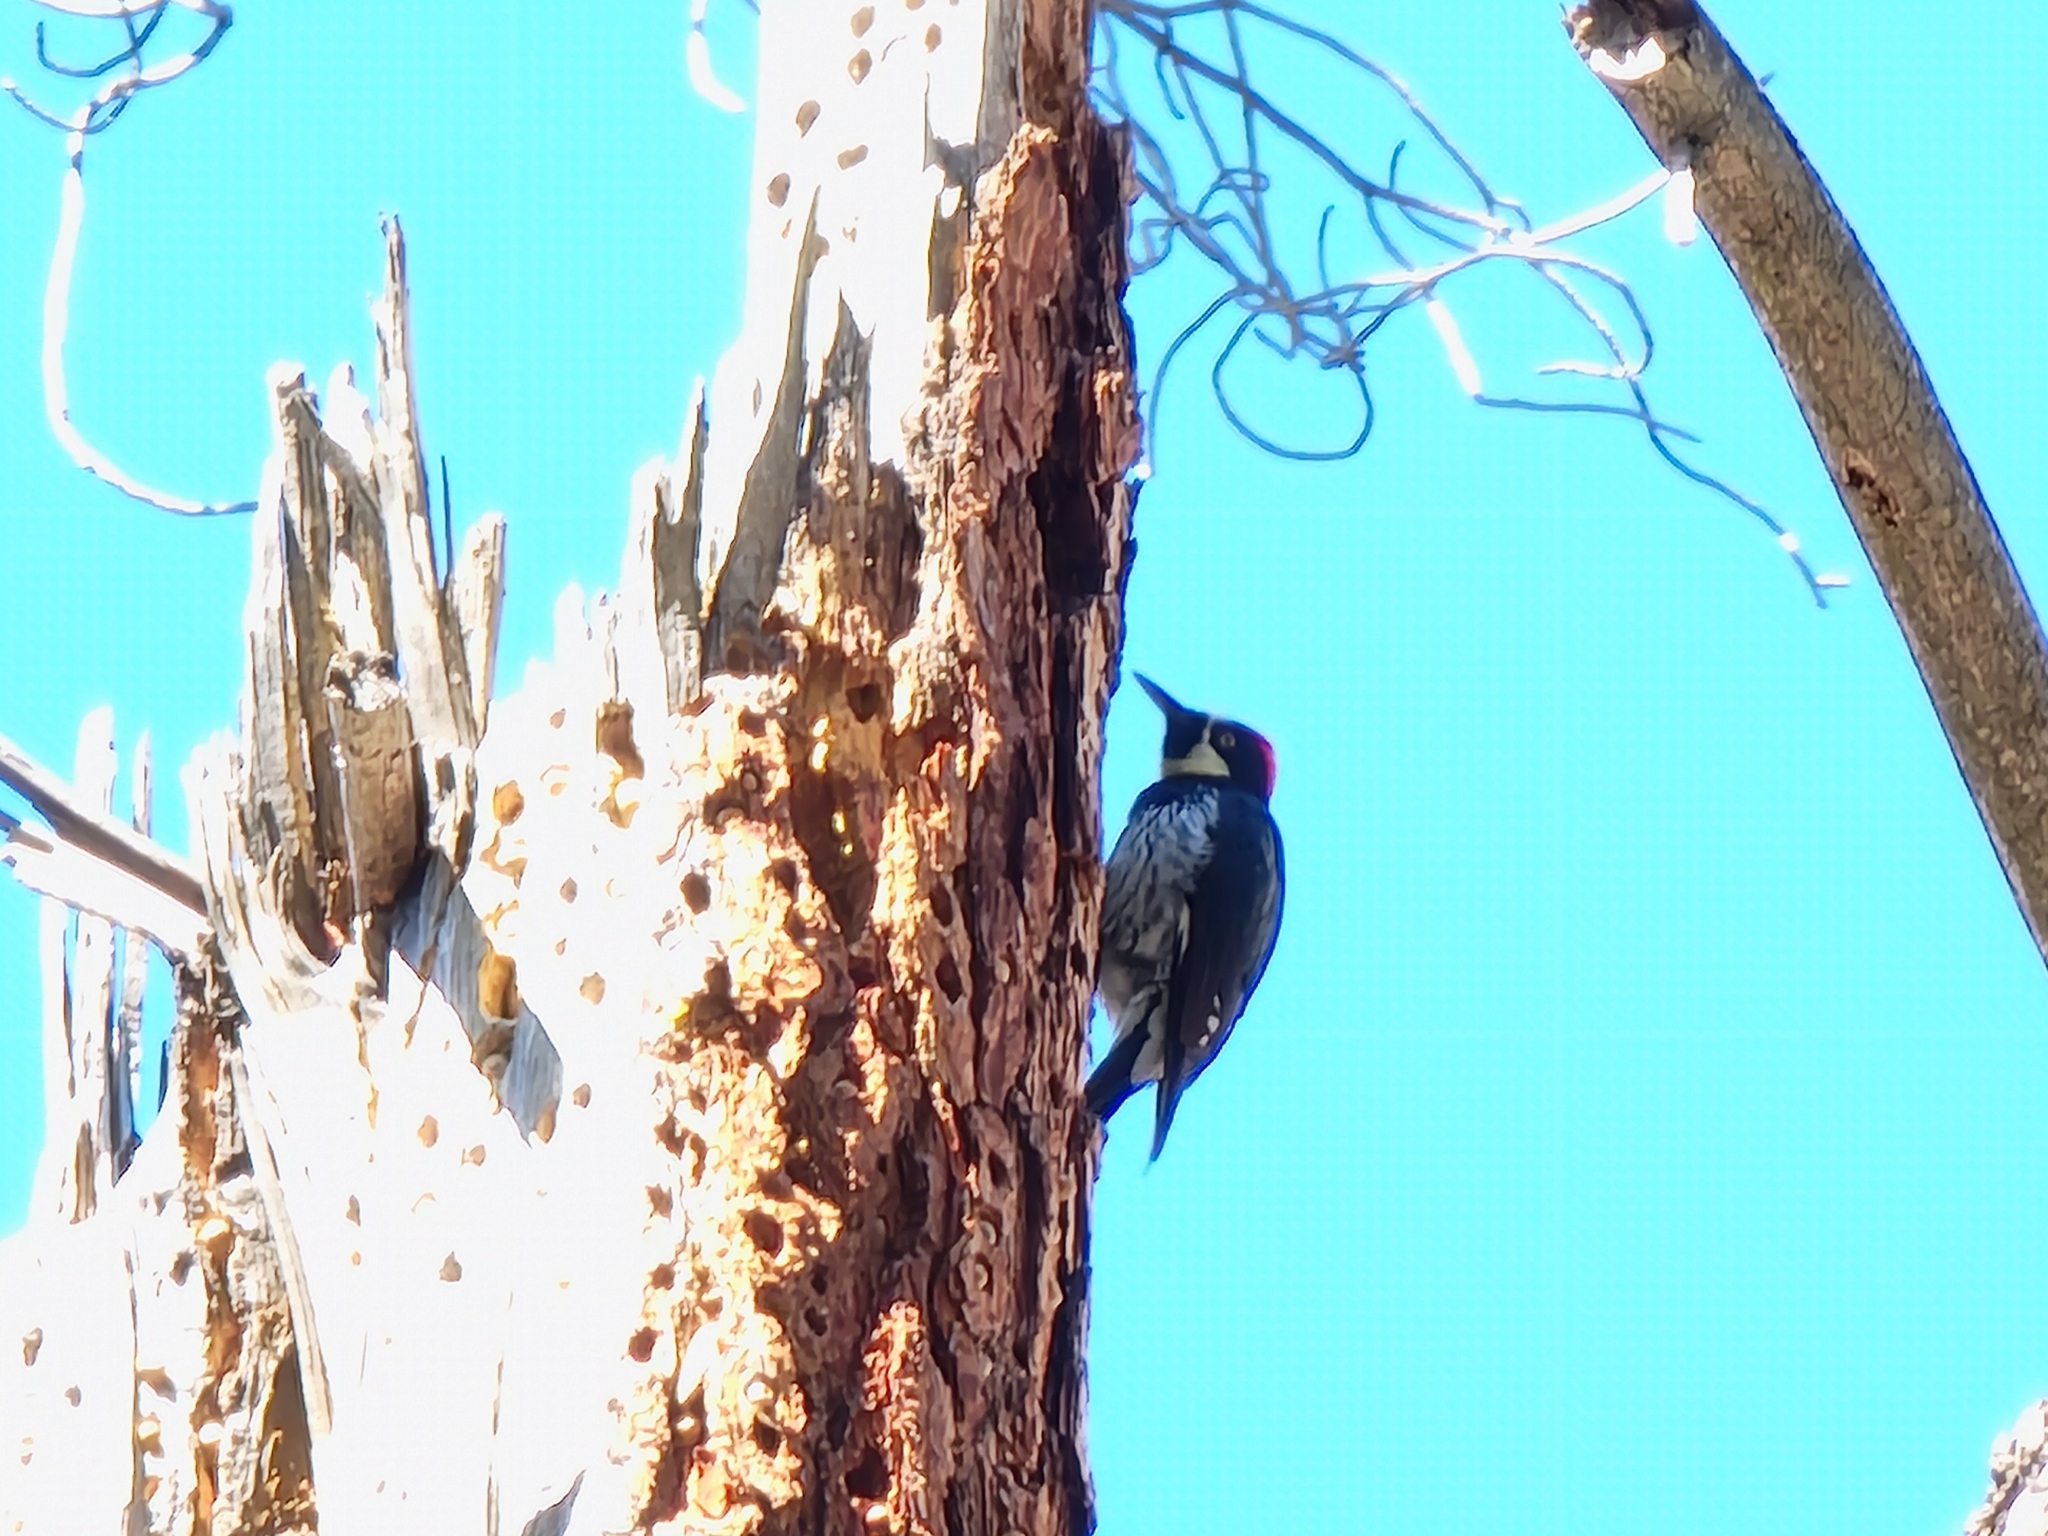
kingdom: Animalia
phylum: Chordata
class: Aves
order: Piciformes
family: Picidae
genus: Melanerpes
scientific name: Melanerpes formicivorus
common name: Acorn woodpecker
